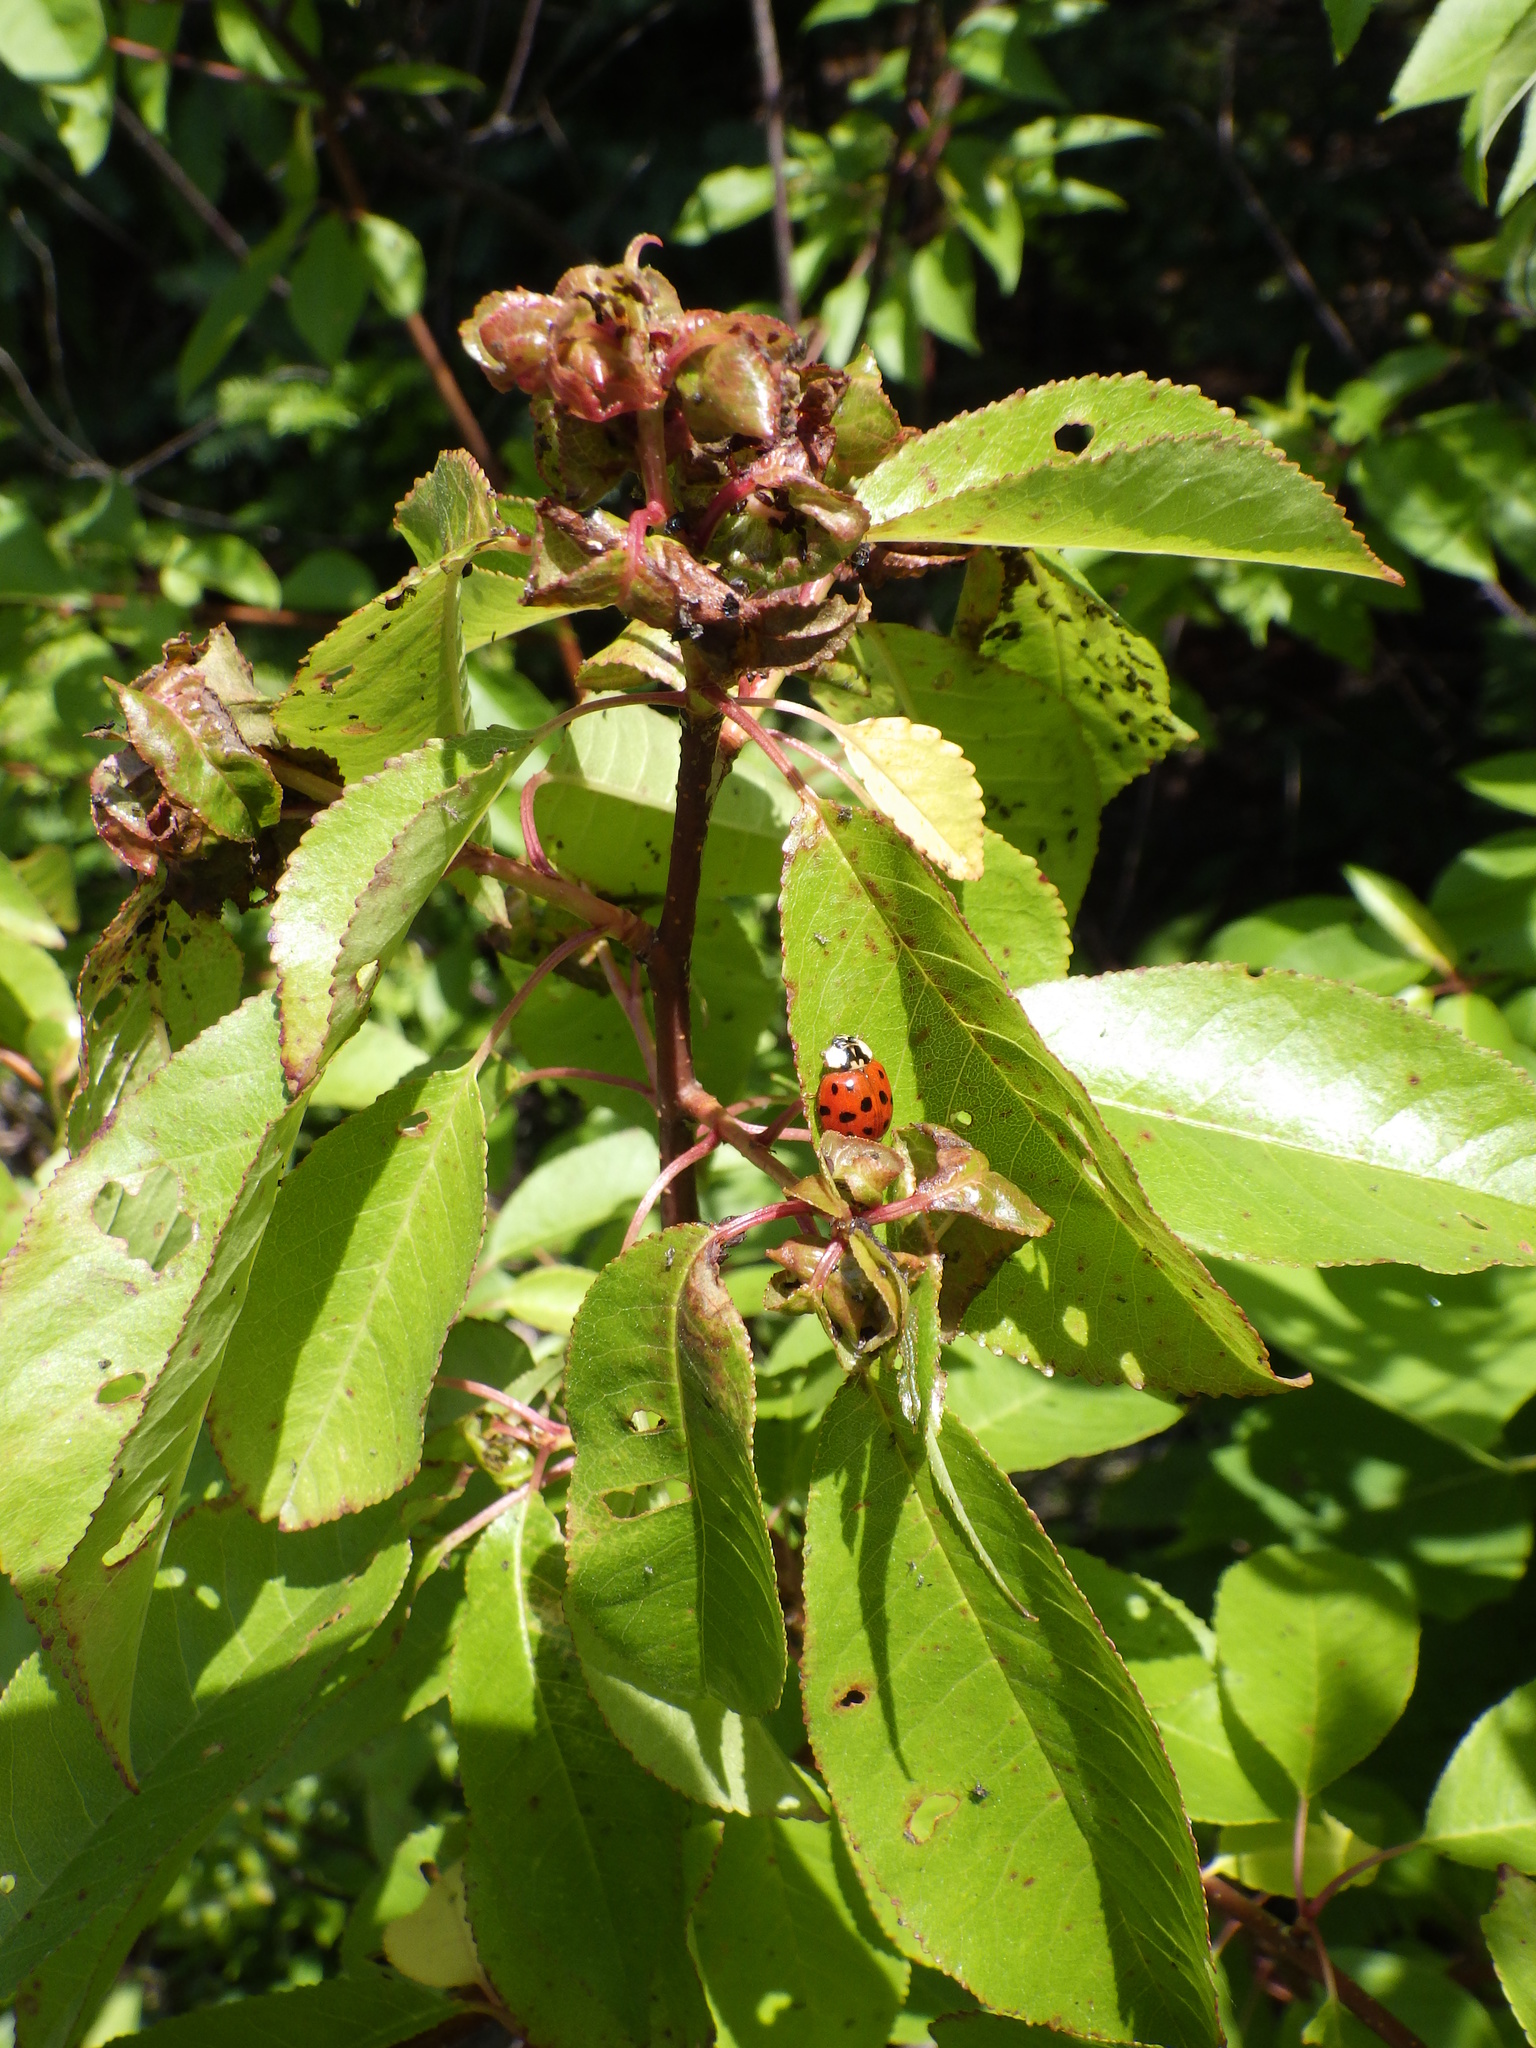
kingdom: Animalia
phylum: Arthropoda
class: Insecta
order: Coleoptera
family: Coccinellidae
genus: Harmonia
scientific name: Harmonia axyridis
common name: Harlequin ladybird
